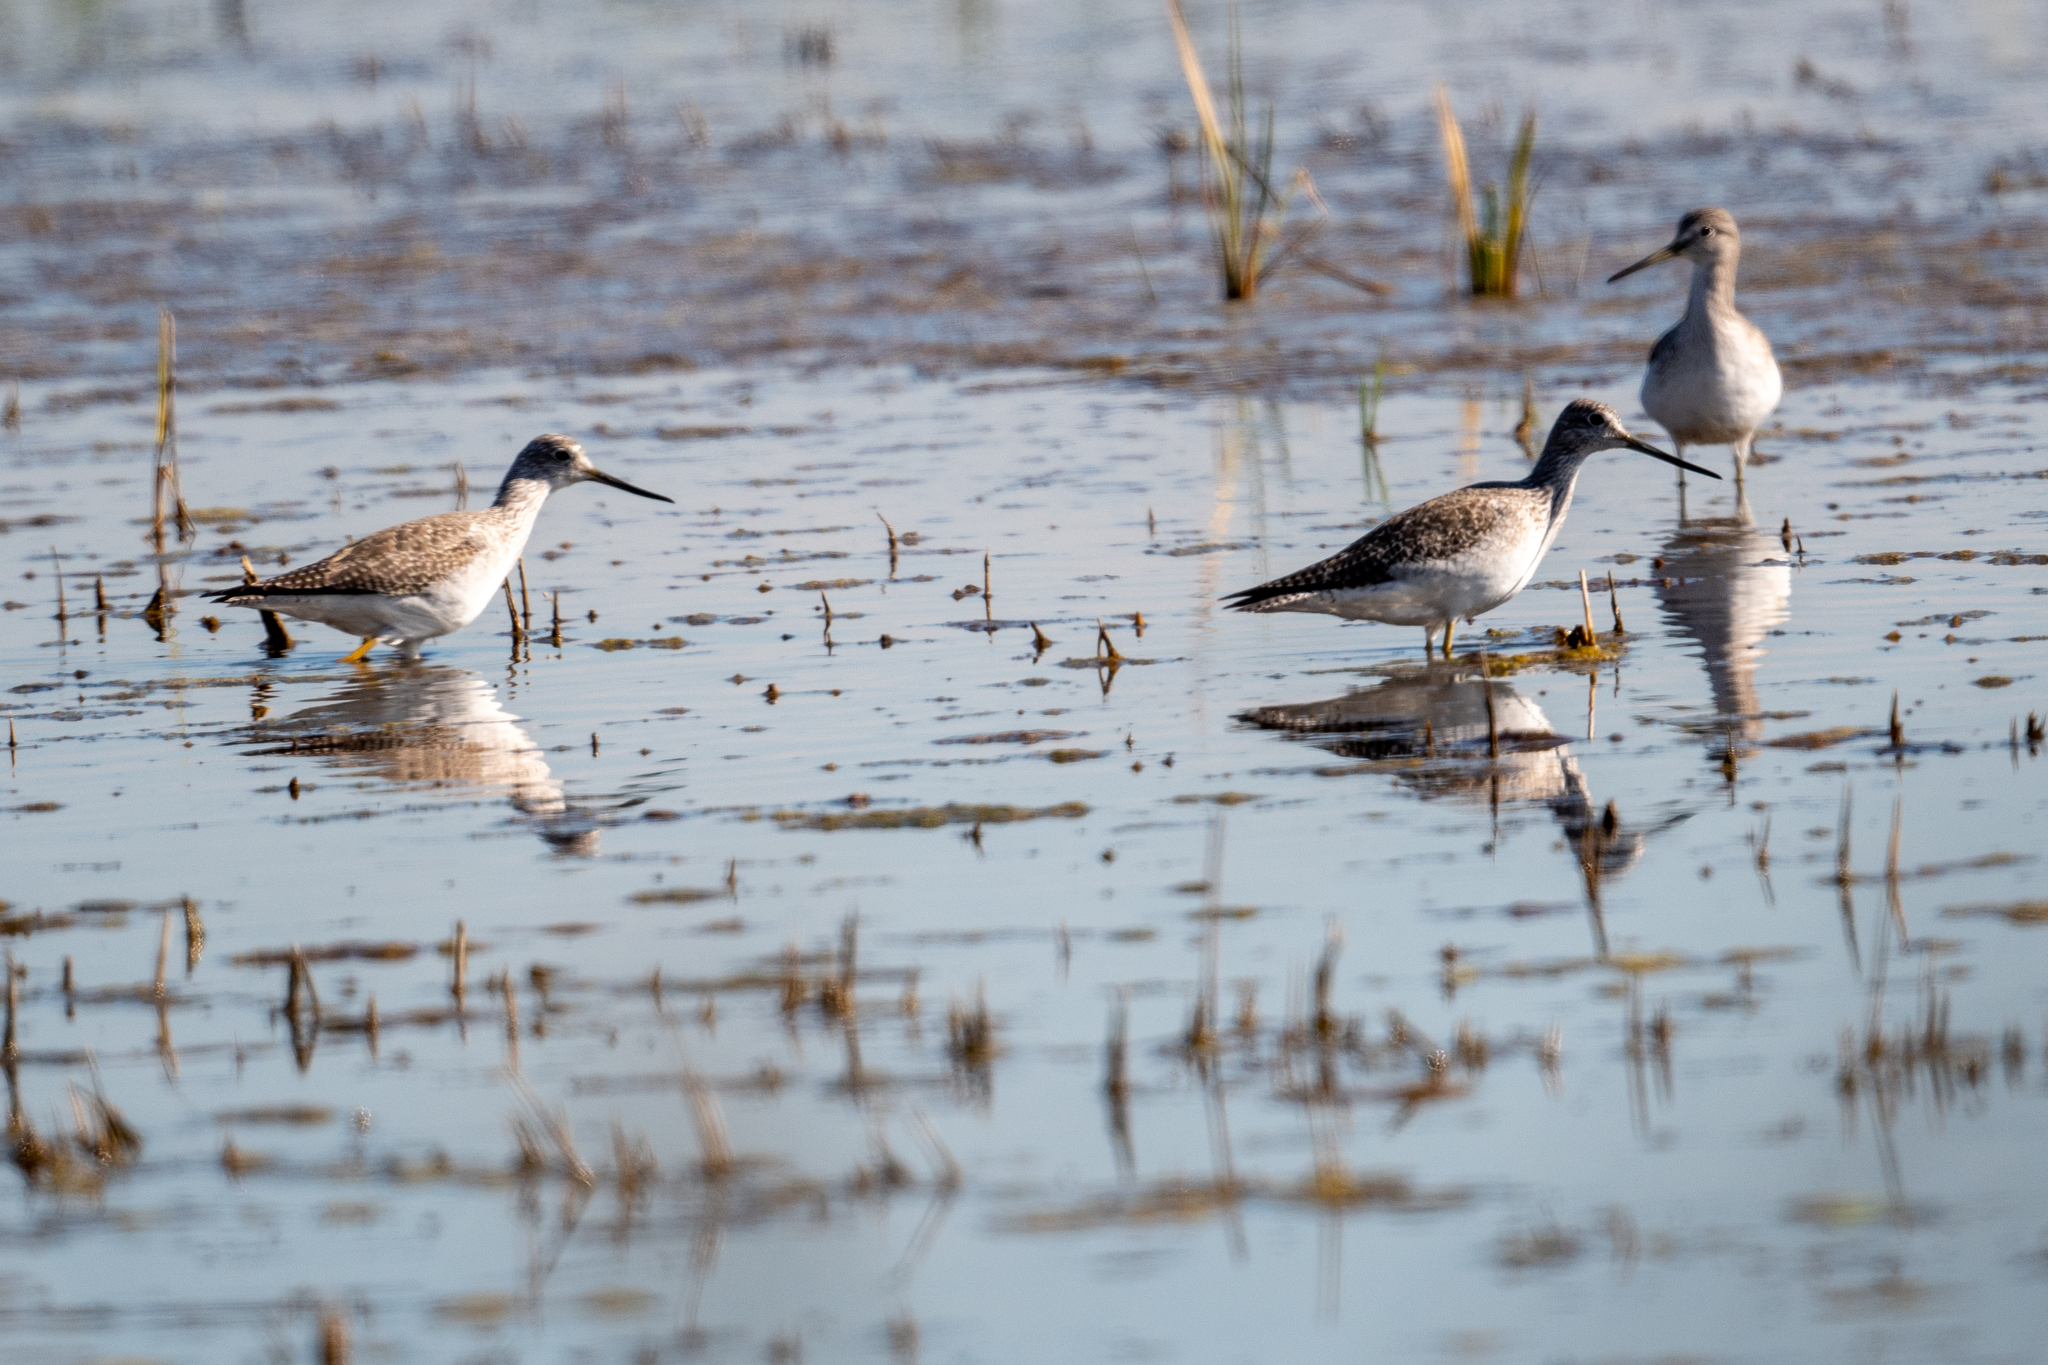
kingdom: Animalia
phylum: Chordata
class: Aves
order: Charadriiformes
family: Scolopacidae
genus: Tringa
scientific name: Tringa melanoleuca
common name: Greater yellowlegs
